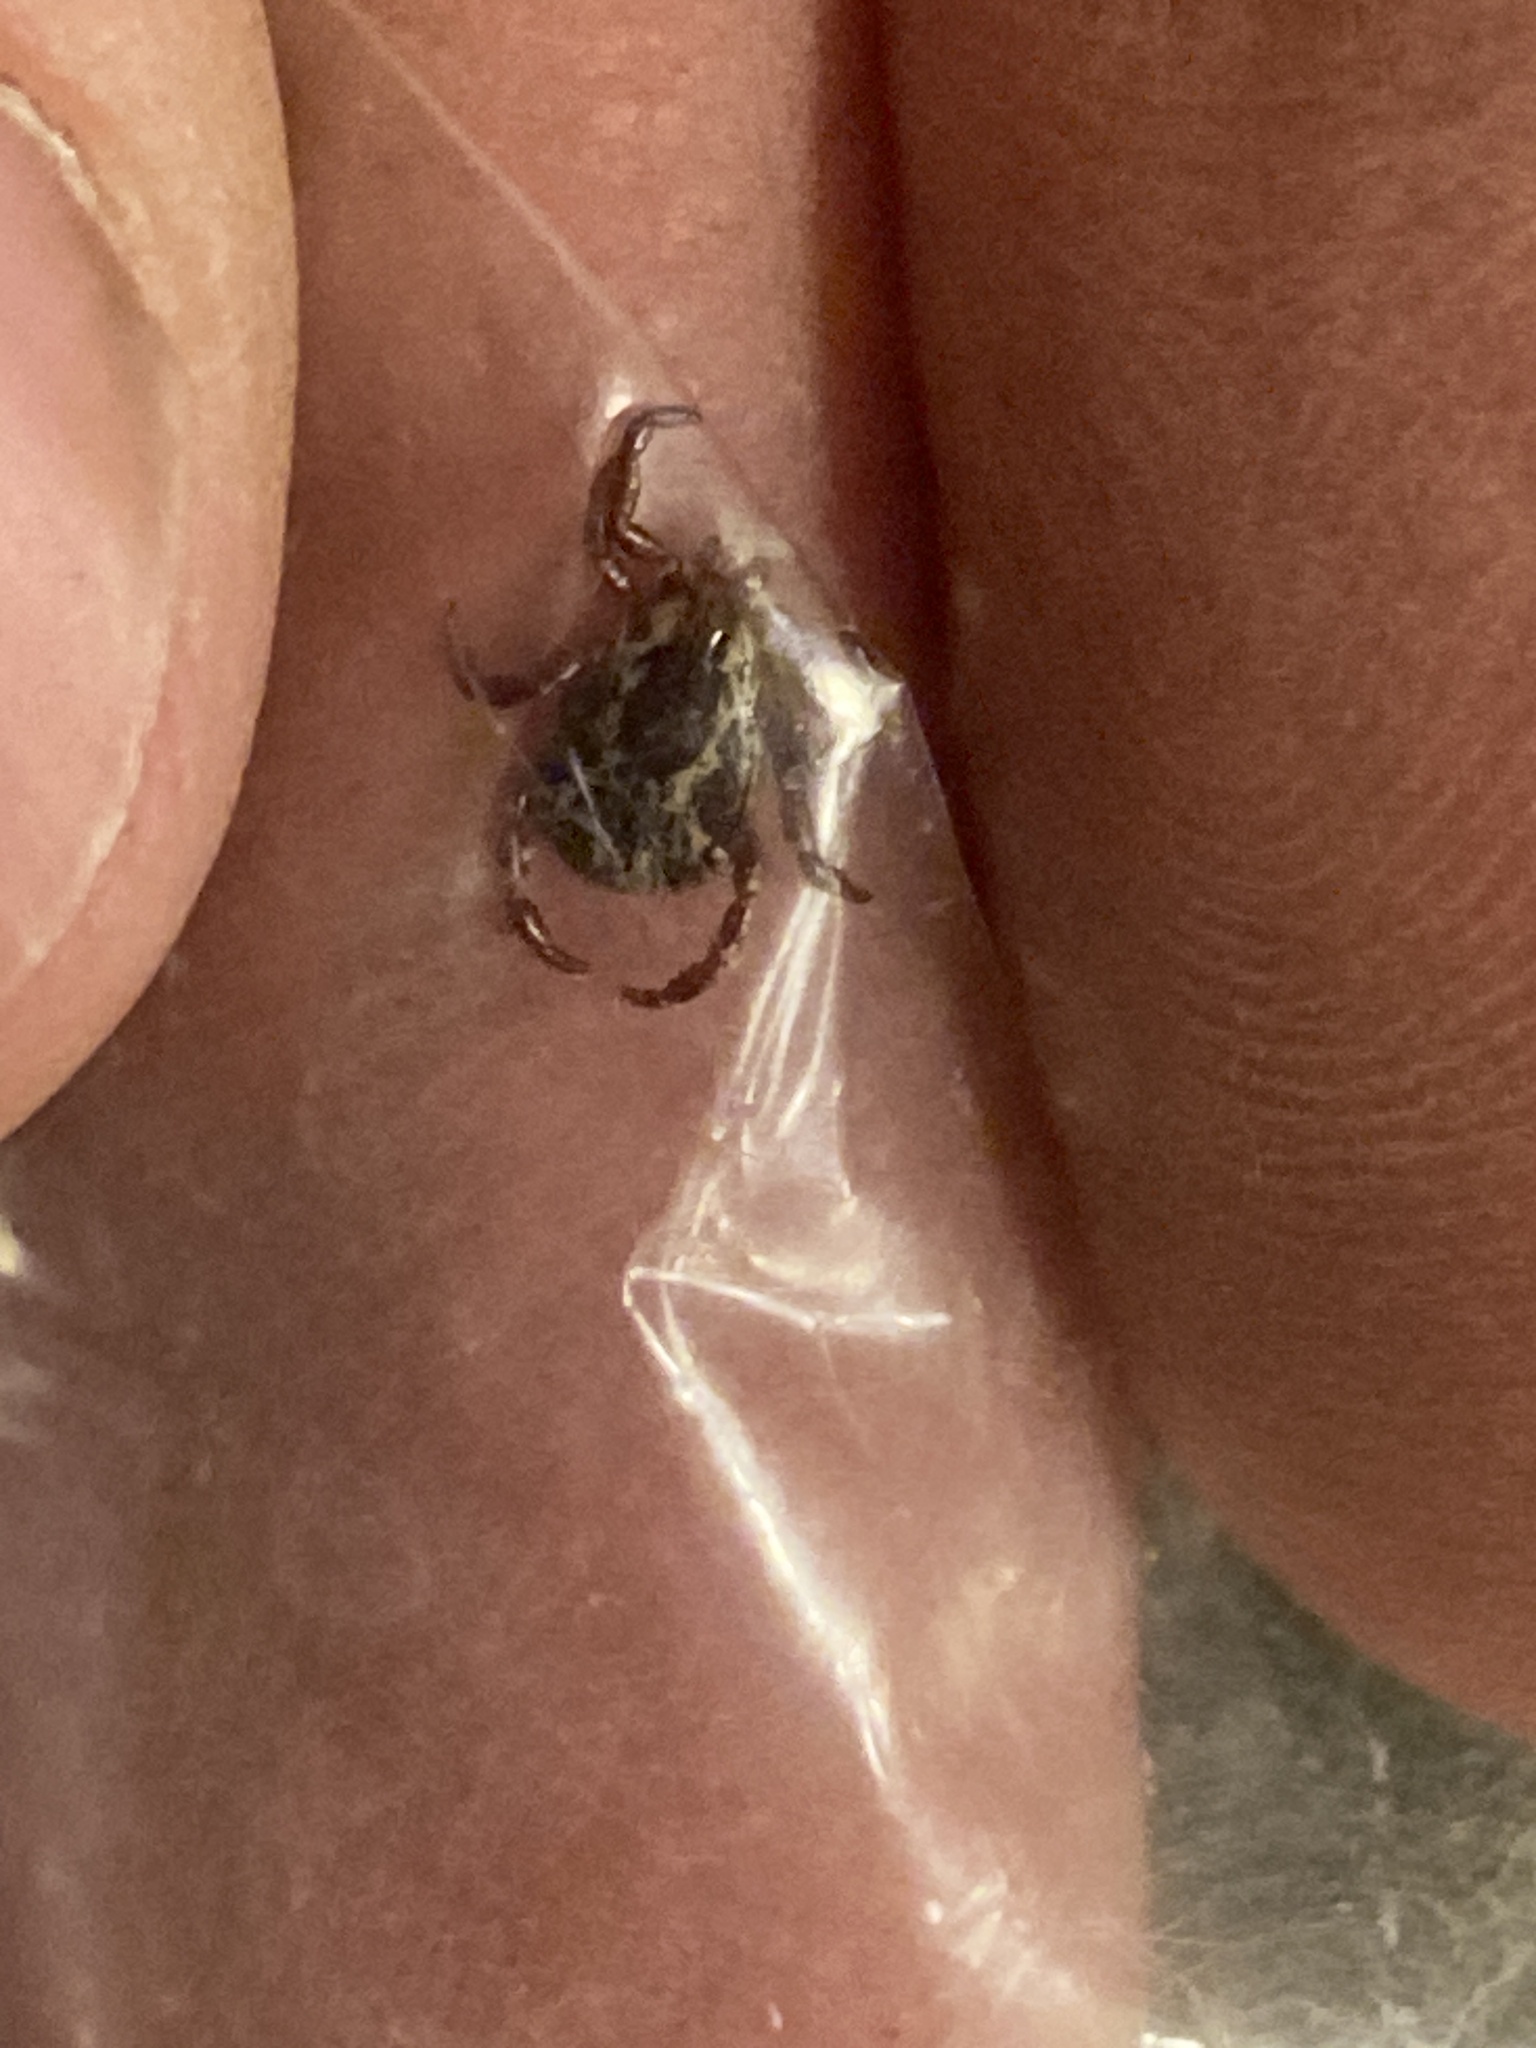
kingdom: Animalia
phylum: Arthropoda
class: Arachnida
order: Ixodida
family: Ixodidae
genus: Dermacentor
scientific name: Dermacentor variabilis
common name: American dog tick
